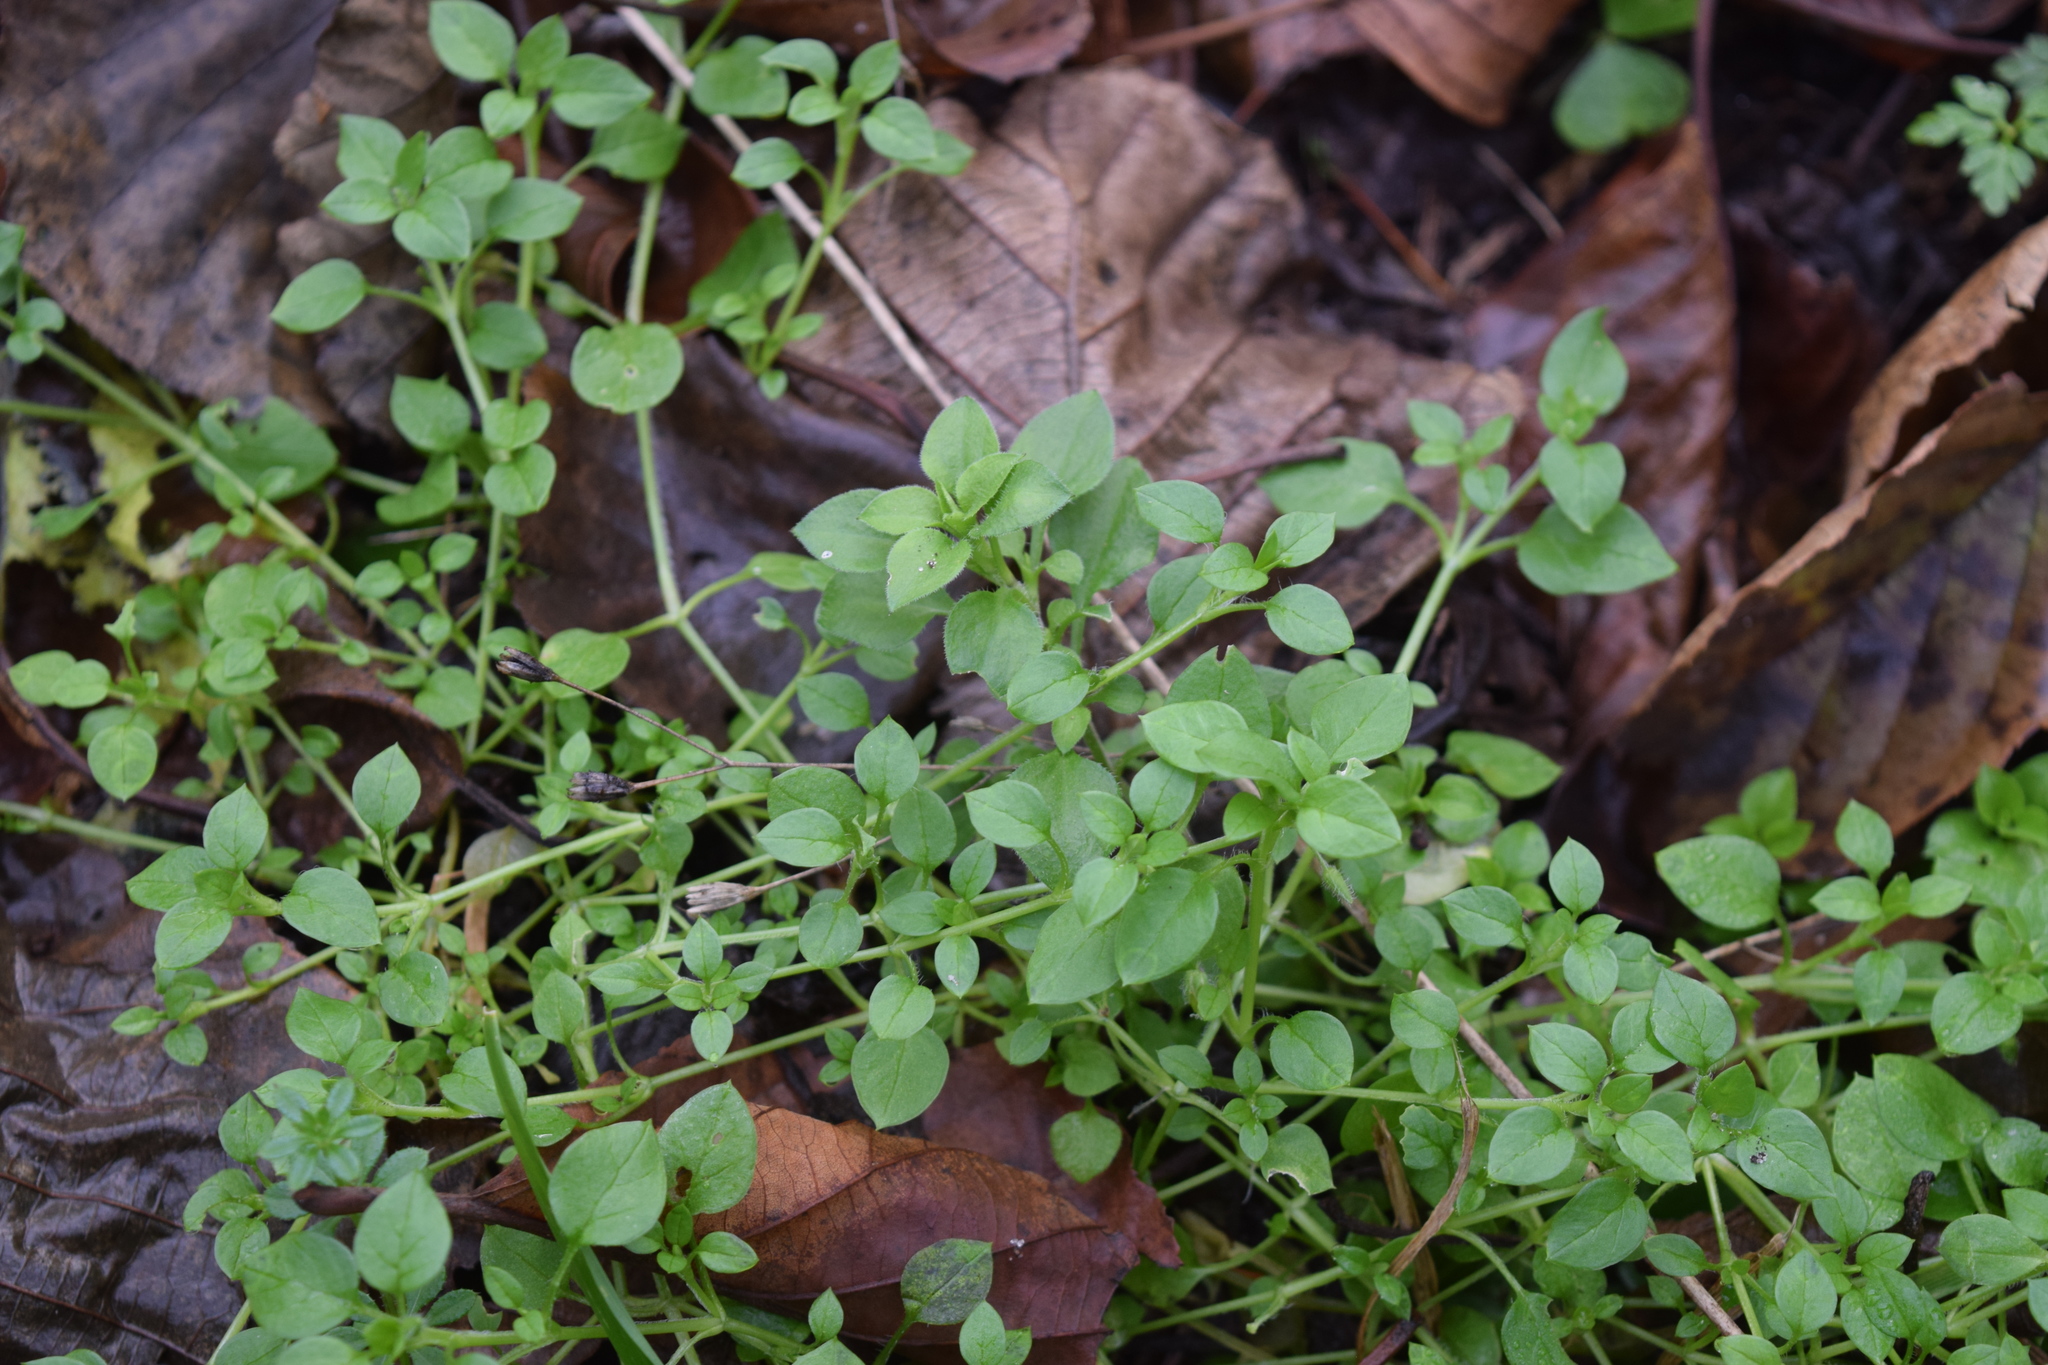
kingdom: Plantae
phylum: Tracheophyta
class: Magnoliopsida
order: Caryophyllales
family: Caryophyllaceae
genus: Stellaria
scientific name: Stellaria media
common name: Common chickweed
